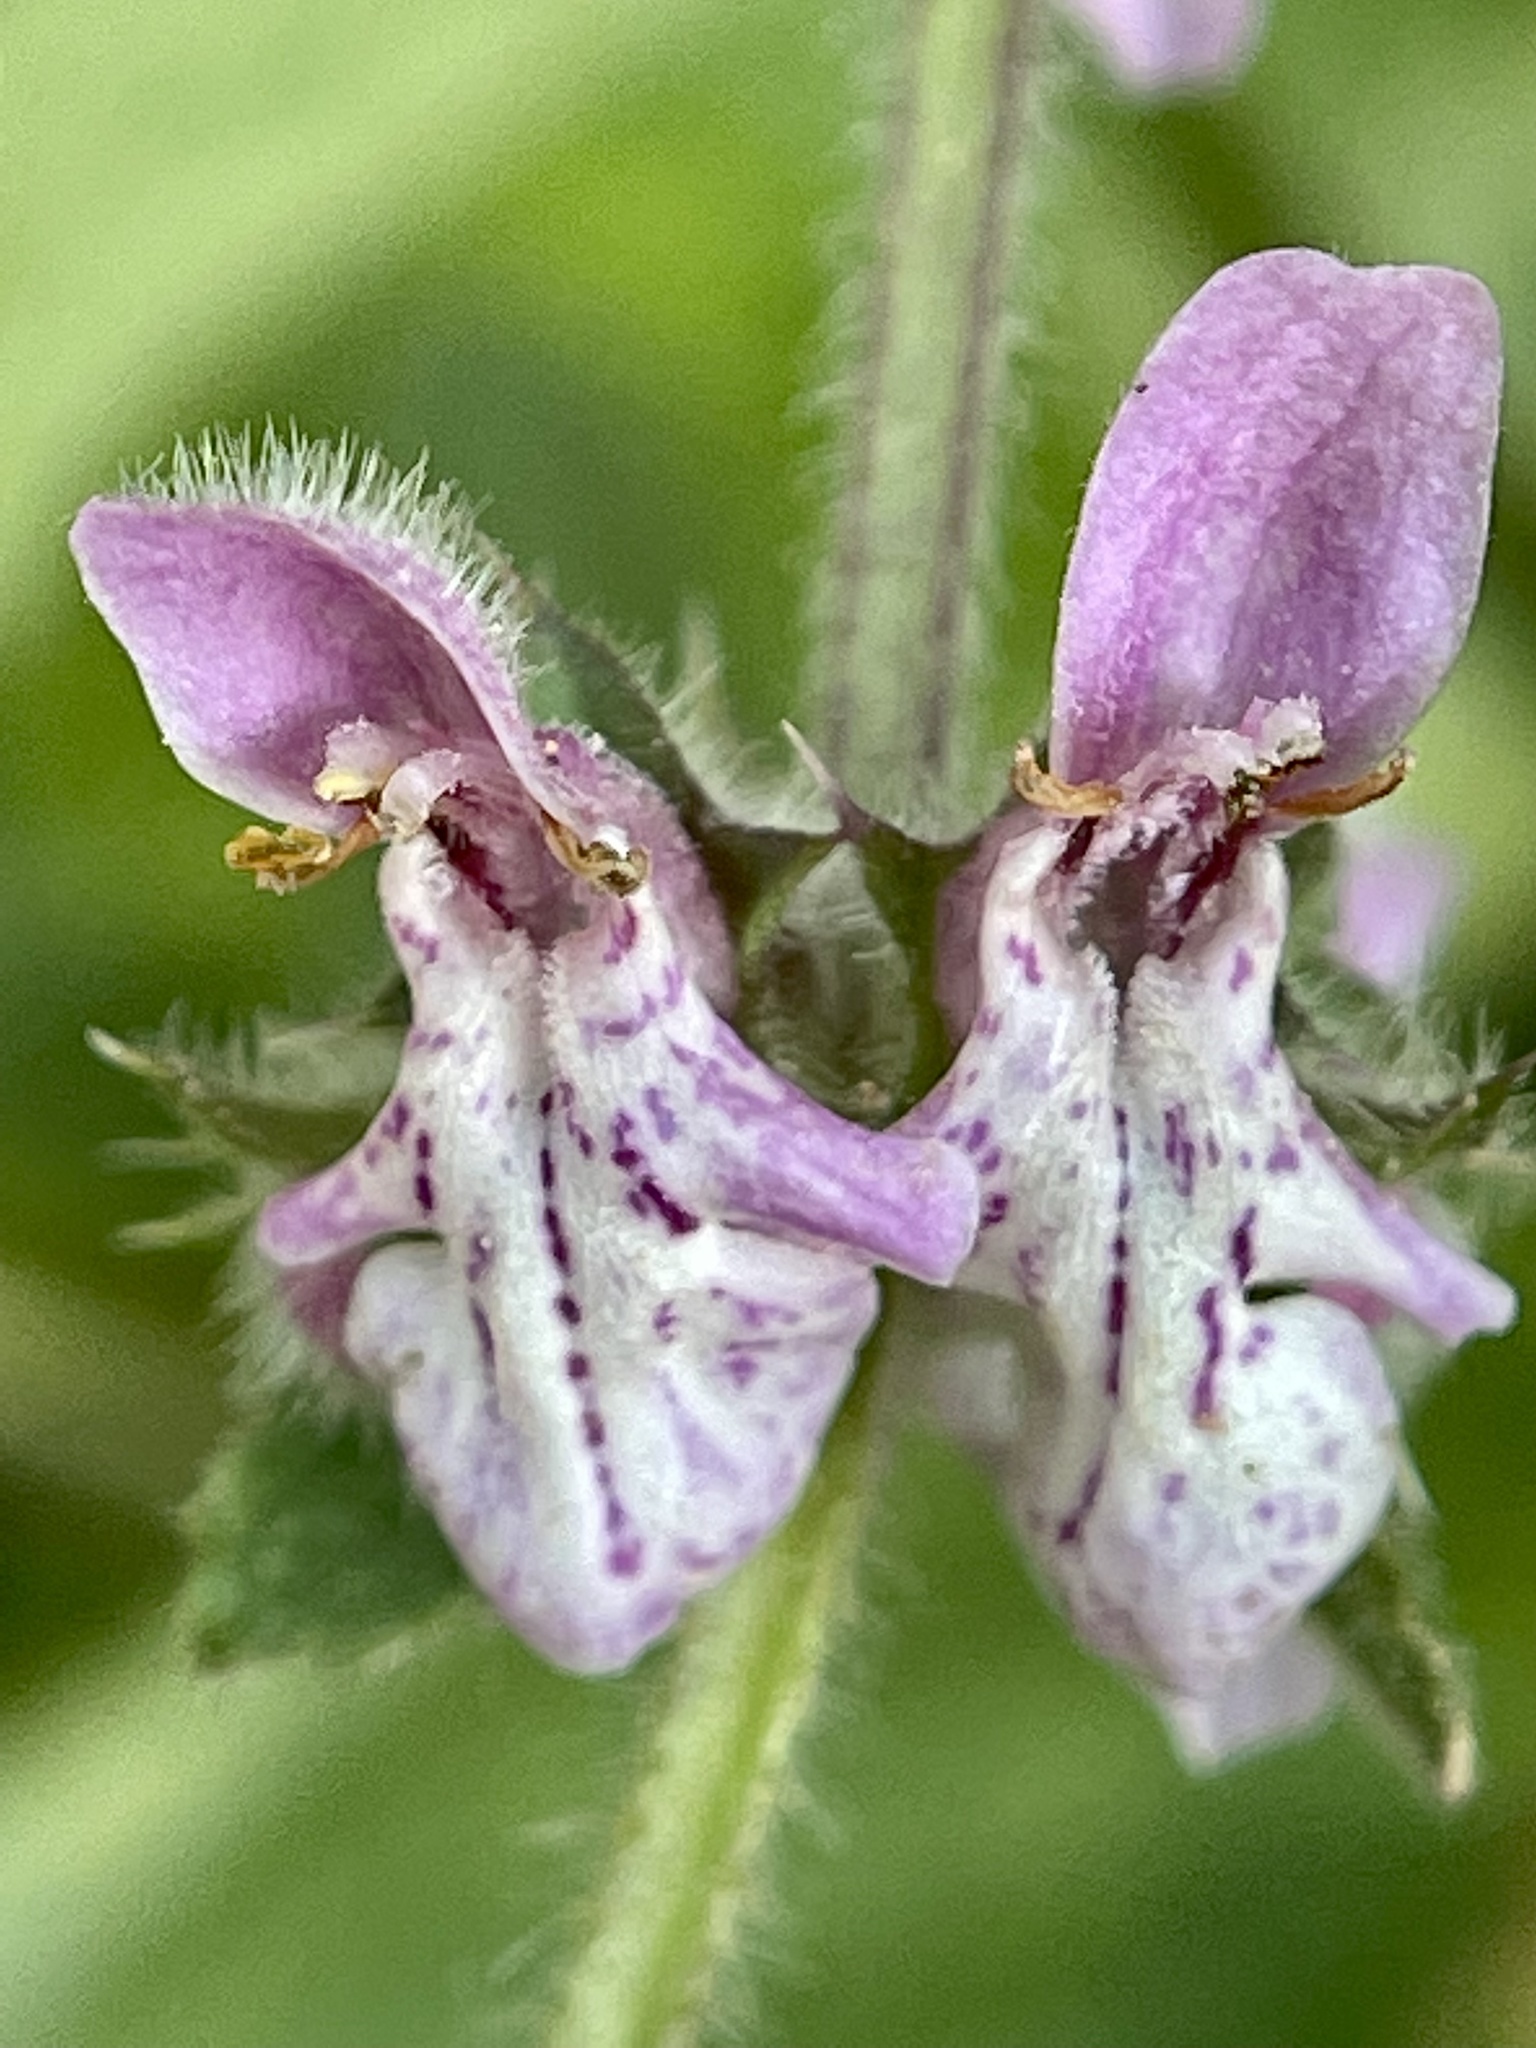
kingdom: Plantae
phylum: Tracheophyta
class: Magnoliopsida
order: Lamiales
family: Lamiaceae
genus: Stachys
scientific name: Stachys rigida
